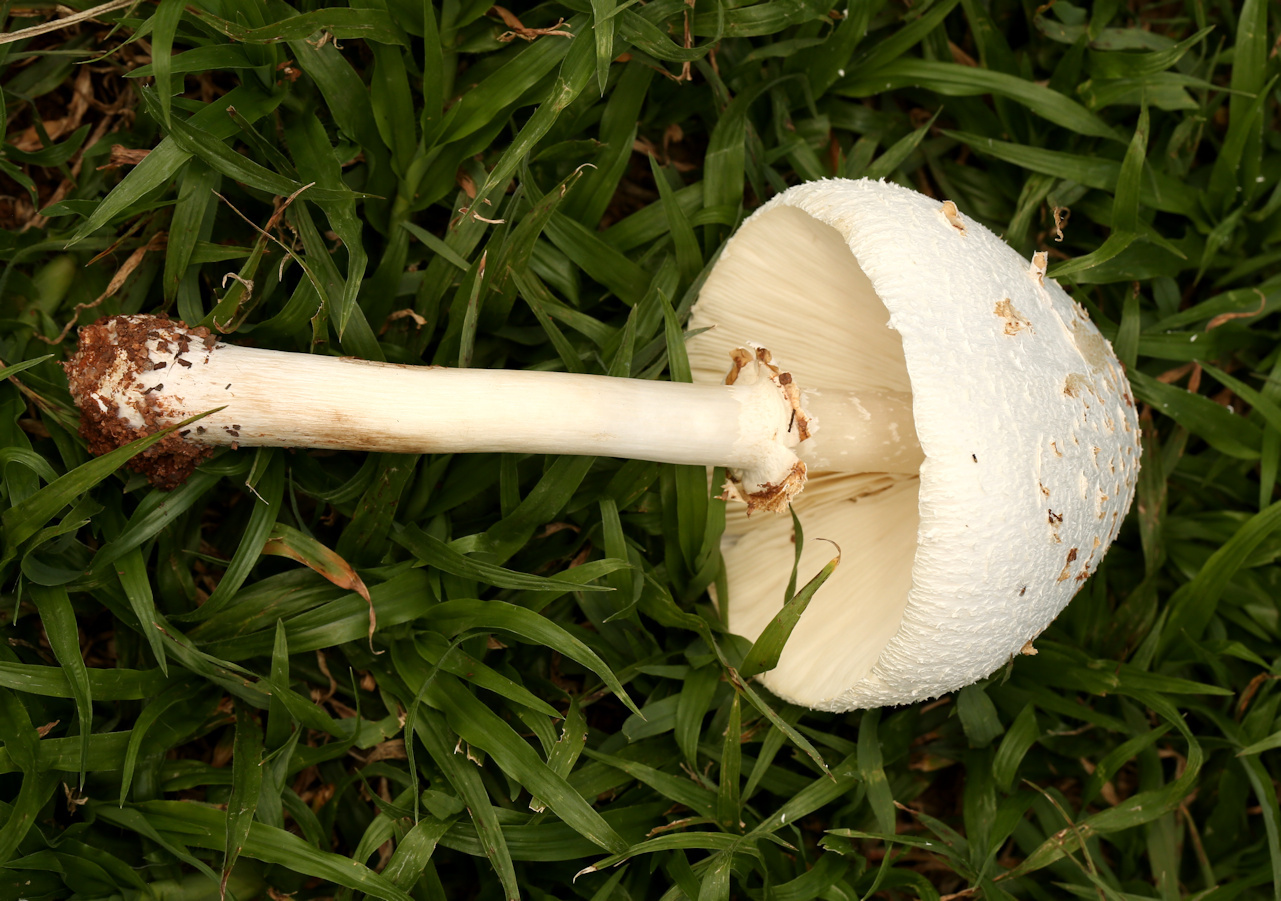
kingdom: Fungi
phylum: Basidiomycota
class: Agaricomycetes
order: Agaricales
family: Agaricaceae
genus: Chlorophyllum
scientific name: Chlorophyllum molybdites
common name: False parasol
